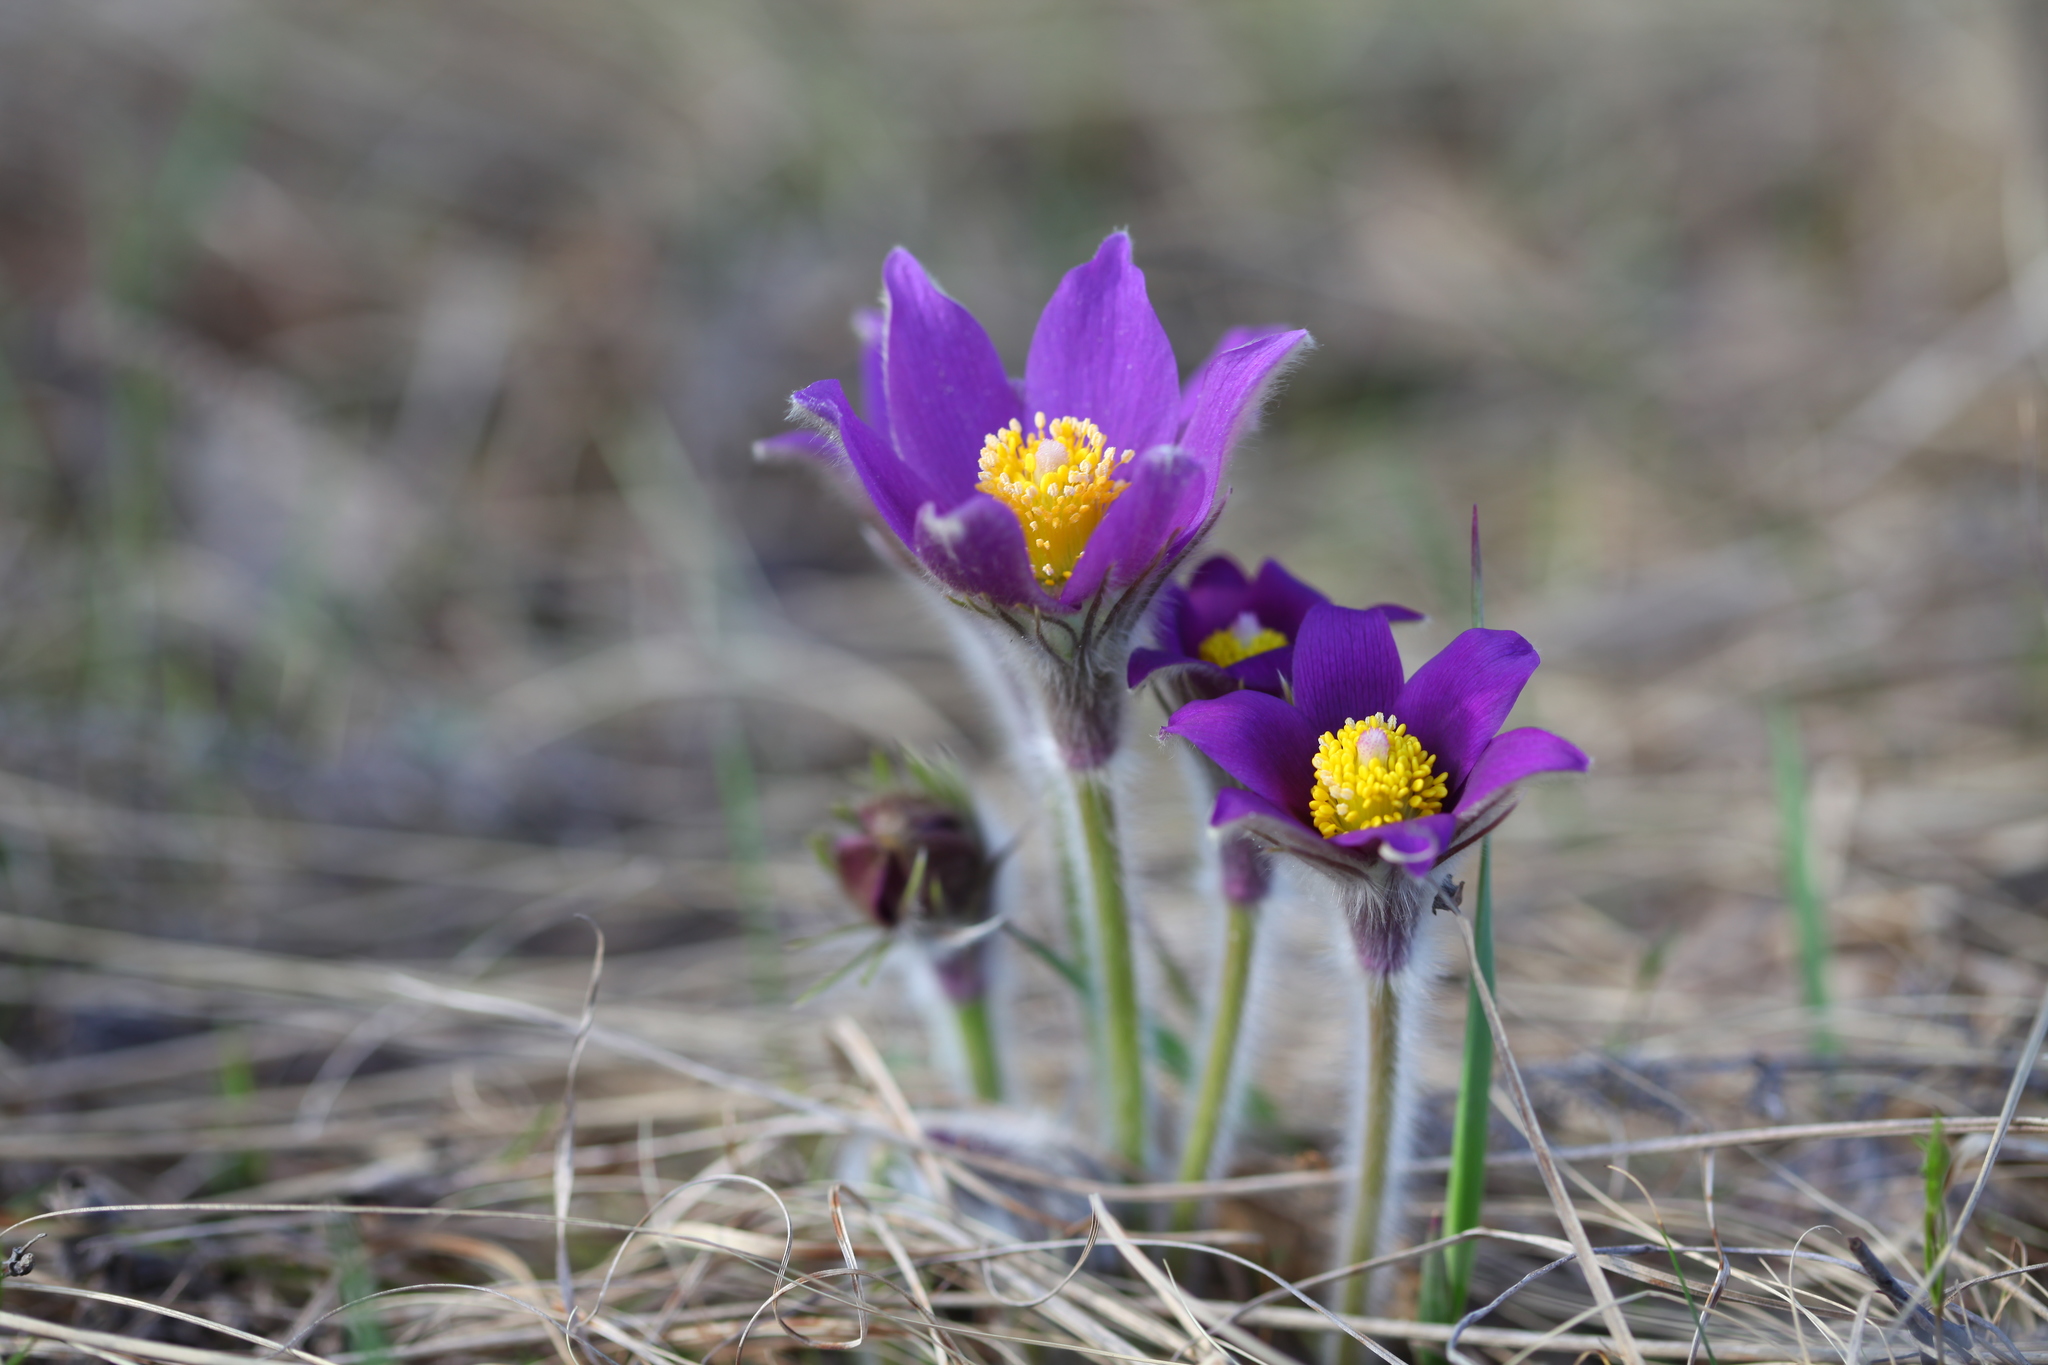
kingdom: Plantae
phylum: Tracheophyta
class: Magnoliopsida
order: Ranunculales
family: Ranunculaceae
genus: Pulsatilla
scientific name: Pulsatilla patens
